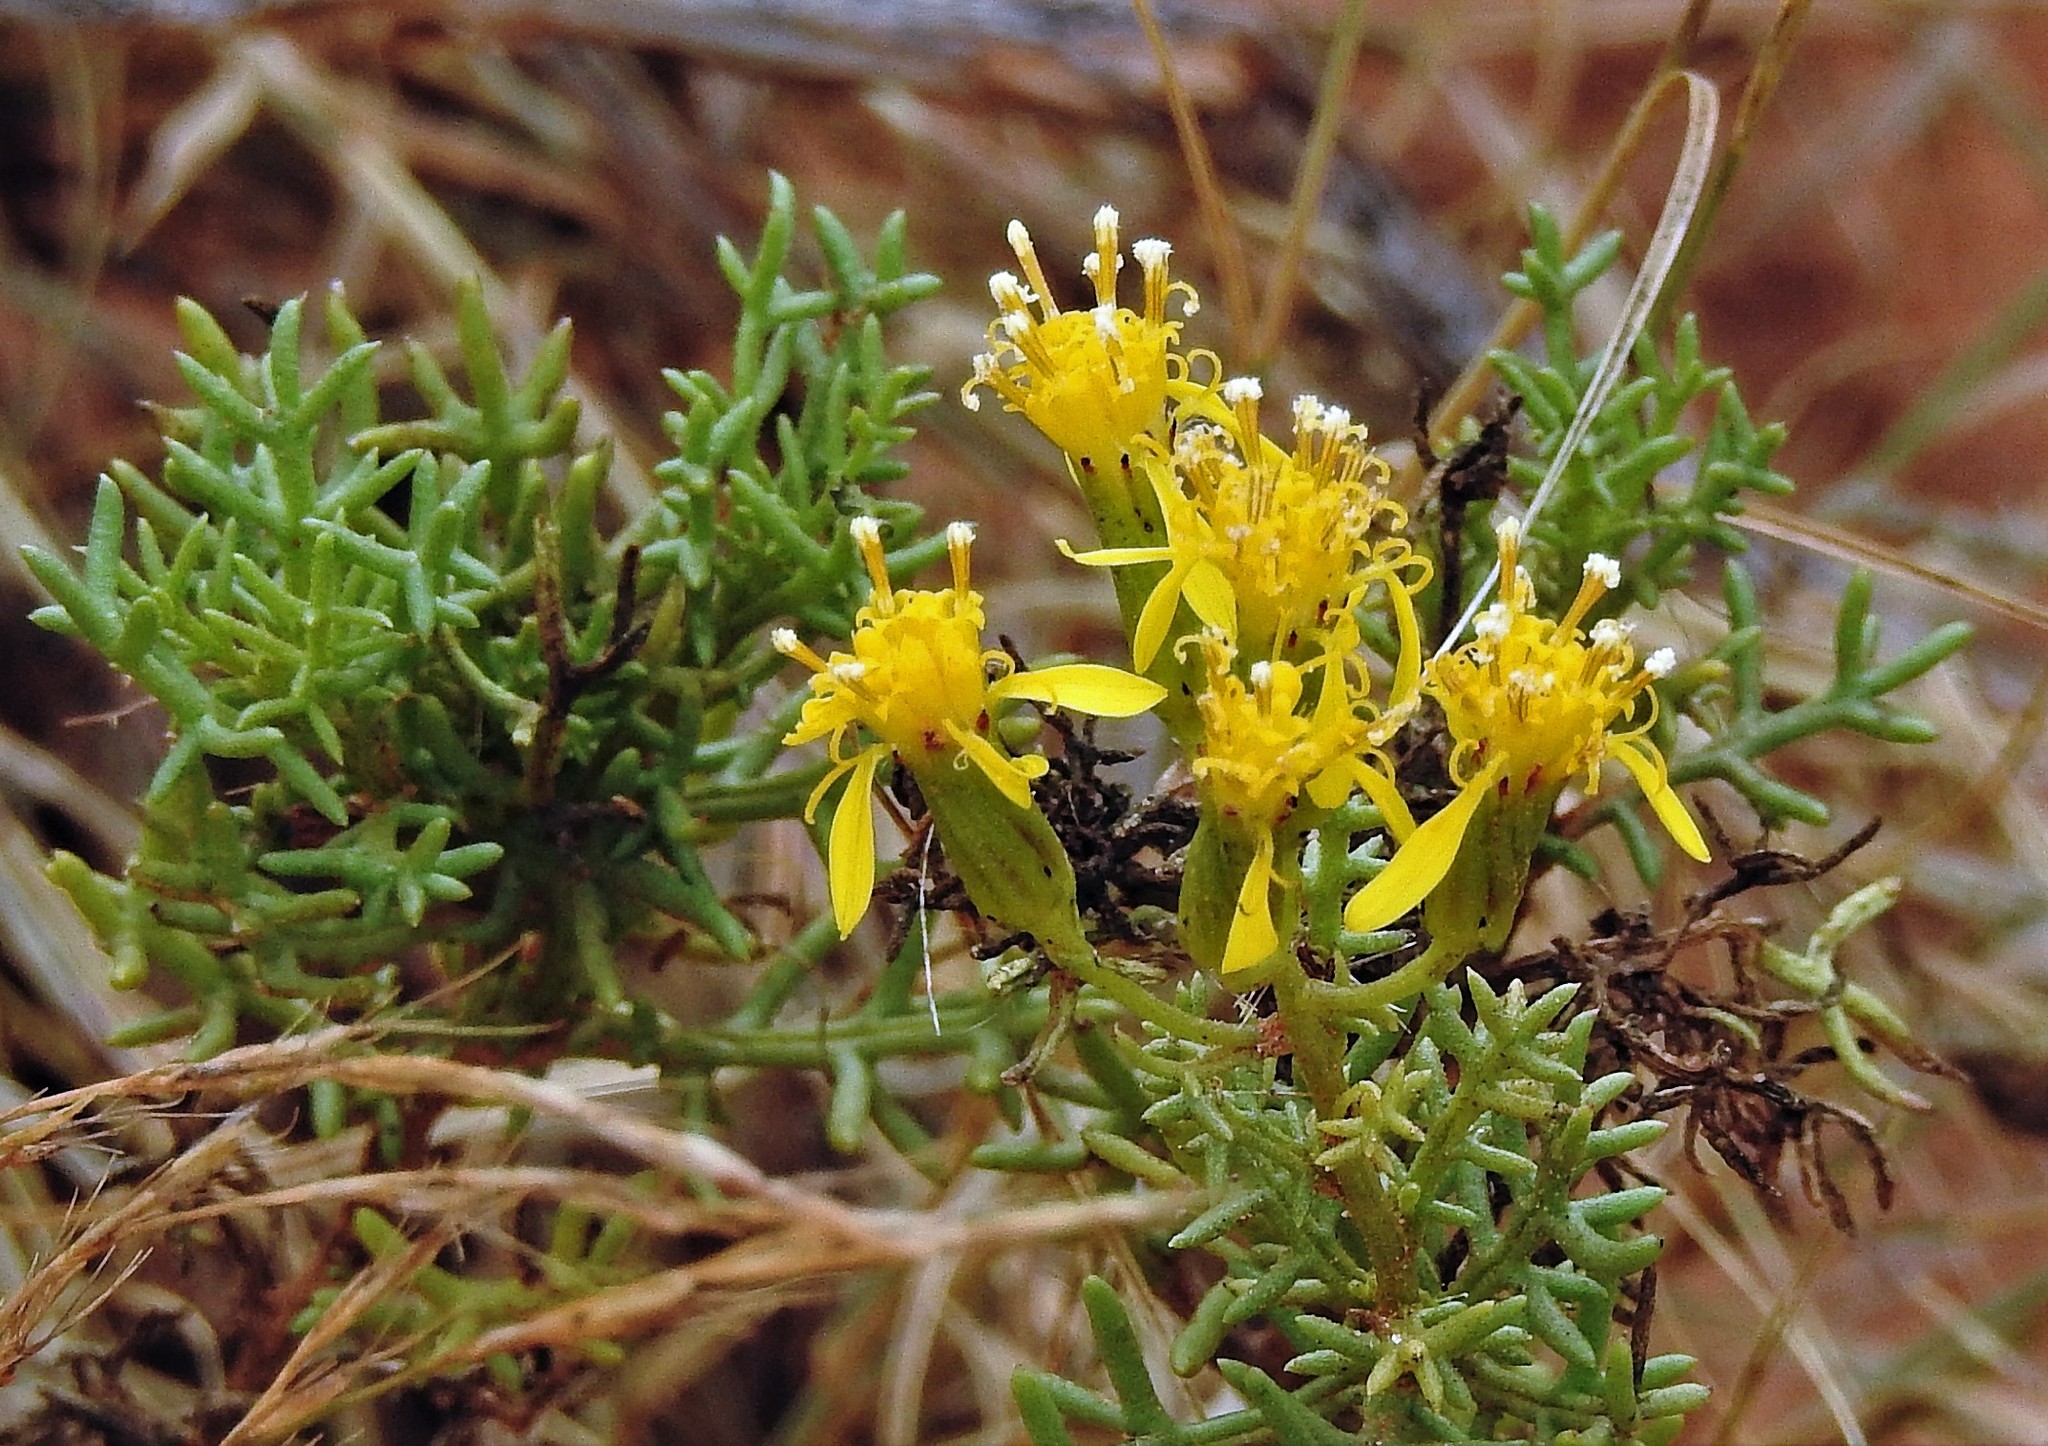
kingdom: Plantae
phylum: Tracheophyta
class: Magnoliopsida
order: Asterales
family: Asteraceae
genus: Senecio
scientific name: Senecio riojanus
